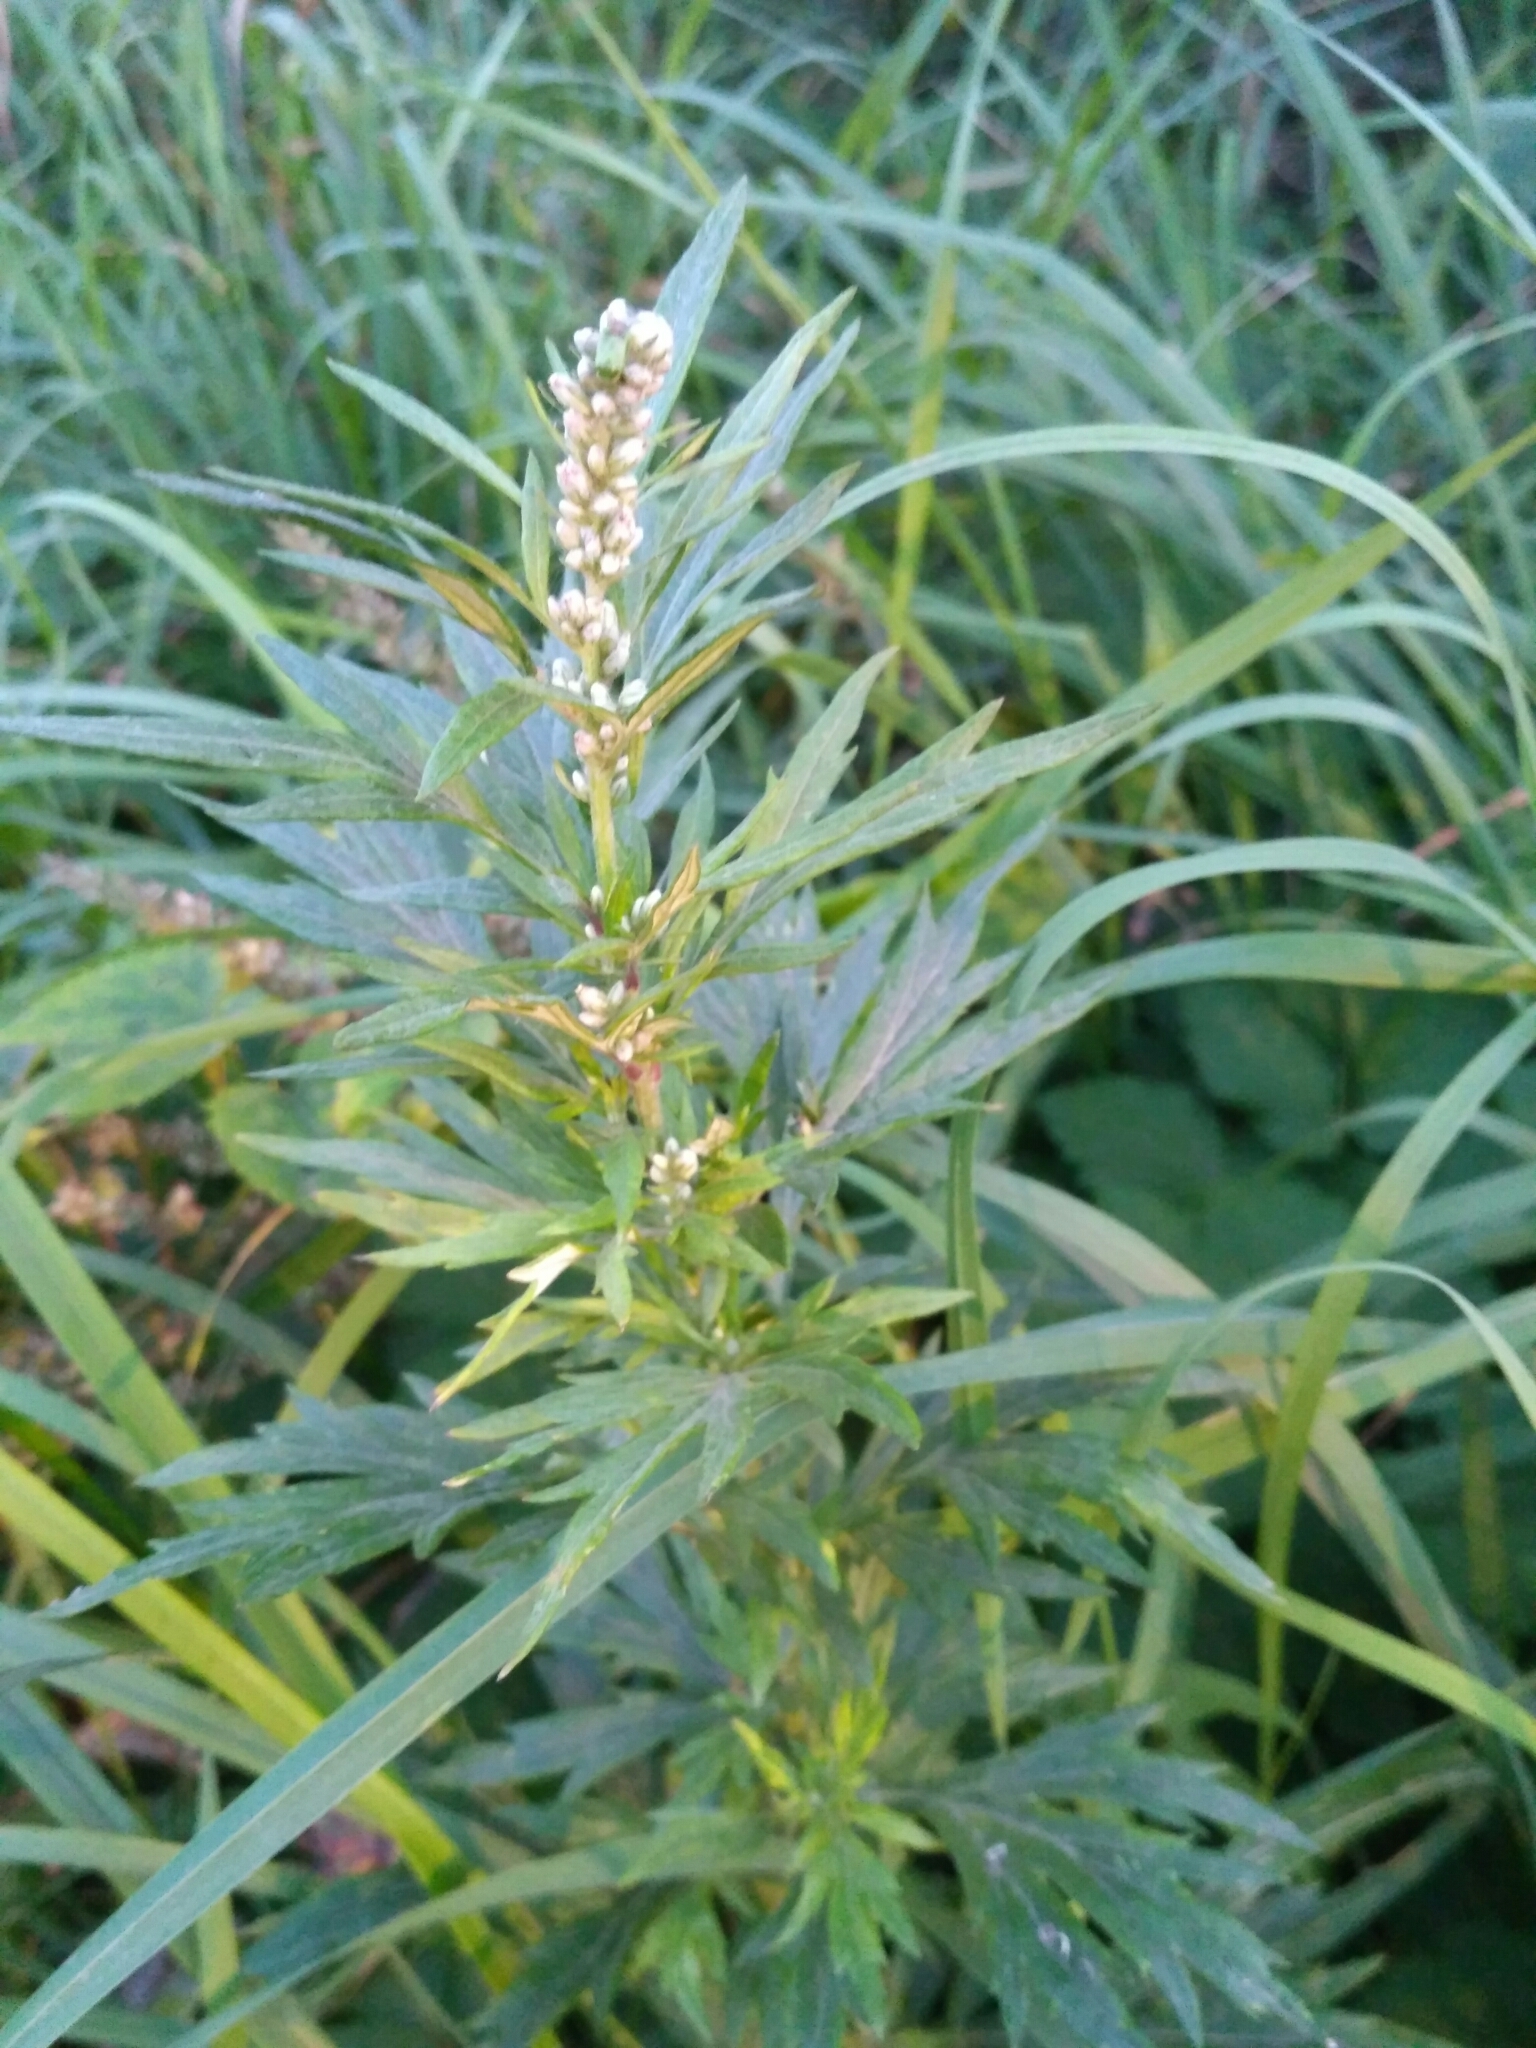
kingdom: Plantae
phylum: Tracheophyta
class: Magnoliopsida
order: Asterales
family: Asteraceae
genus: Artemisia
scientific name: Artemisia vulgaris
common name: Mugwort
